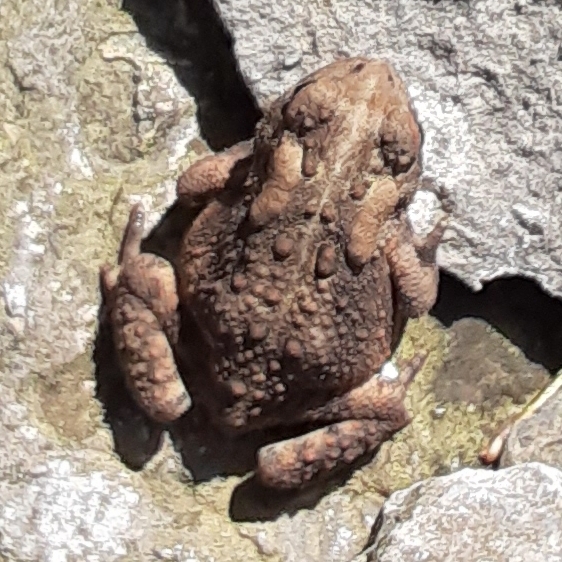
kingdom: Animalia
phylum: Chordata
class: Amphibia
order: Anura
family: Bufonidae
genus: Anaxyrus
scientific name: Anaxyrus americanus
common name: American toad
